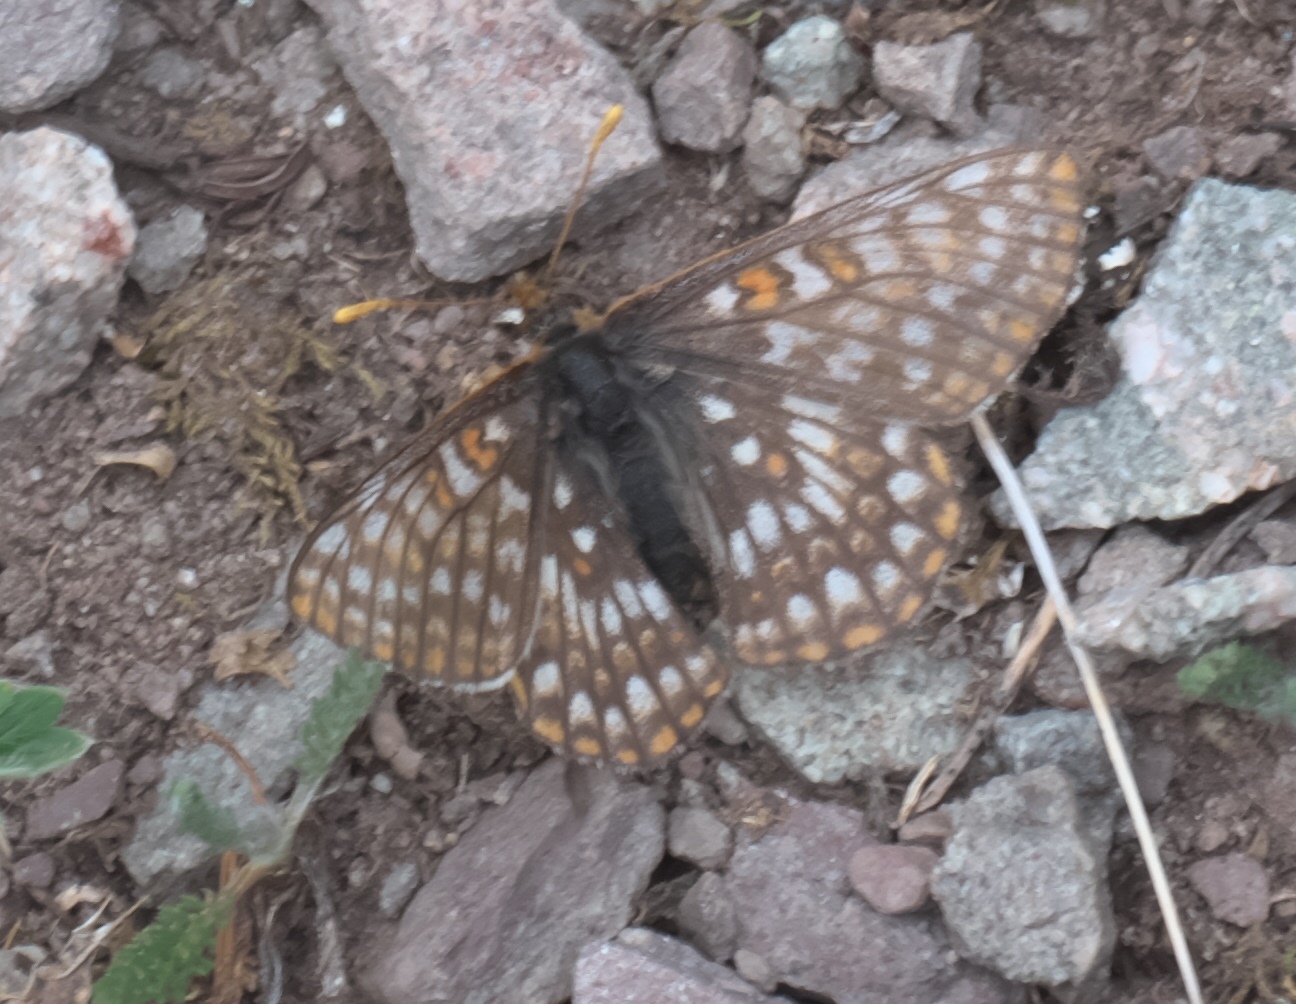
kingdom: Animalia
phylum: Arthropoda
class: Insecta
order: Lepidoptera
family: Nymphalidae
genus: Occidryas
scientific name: Occidryas anicia
